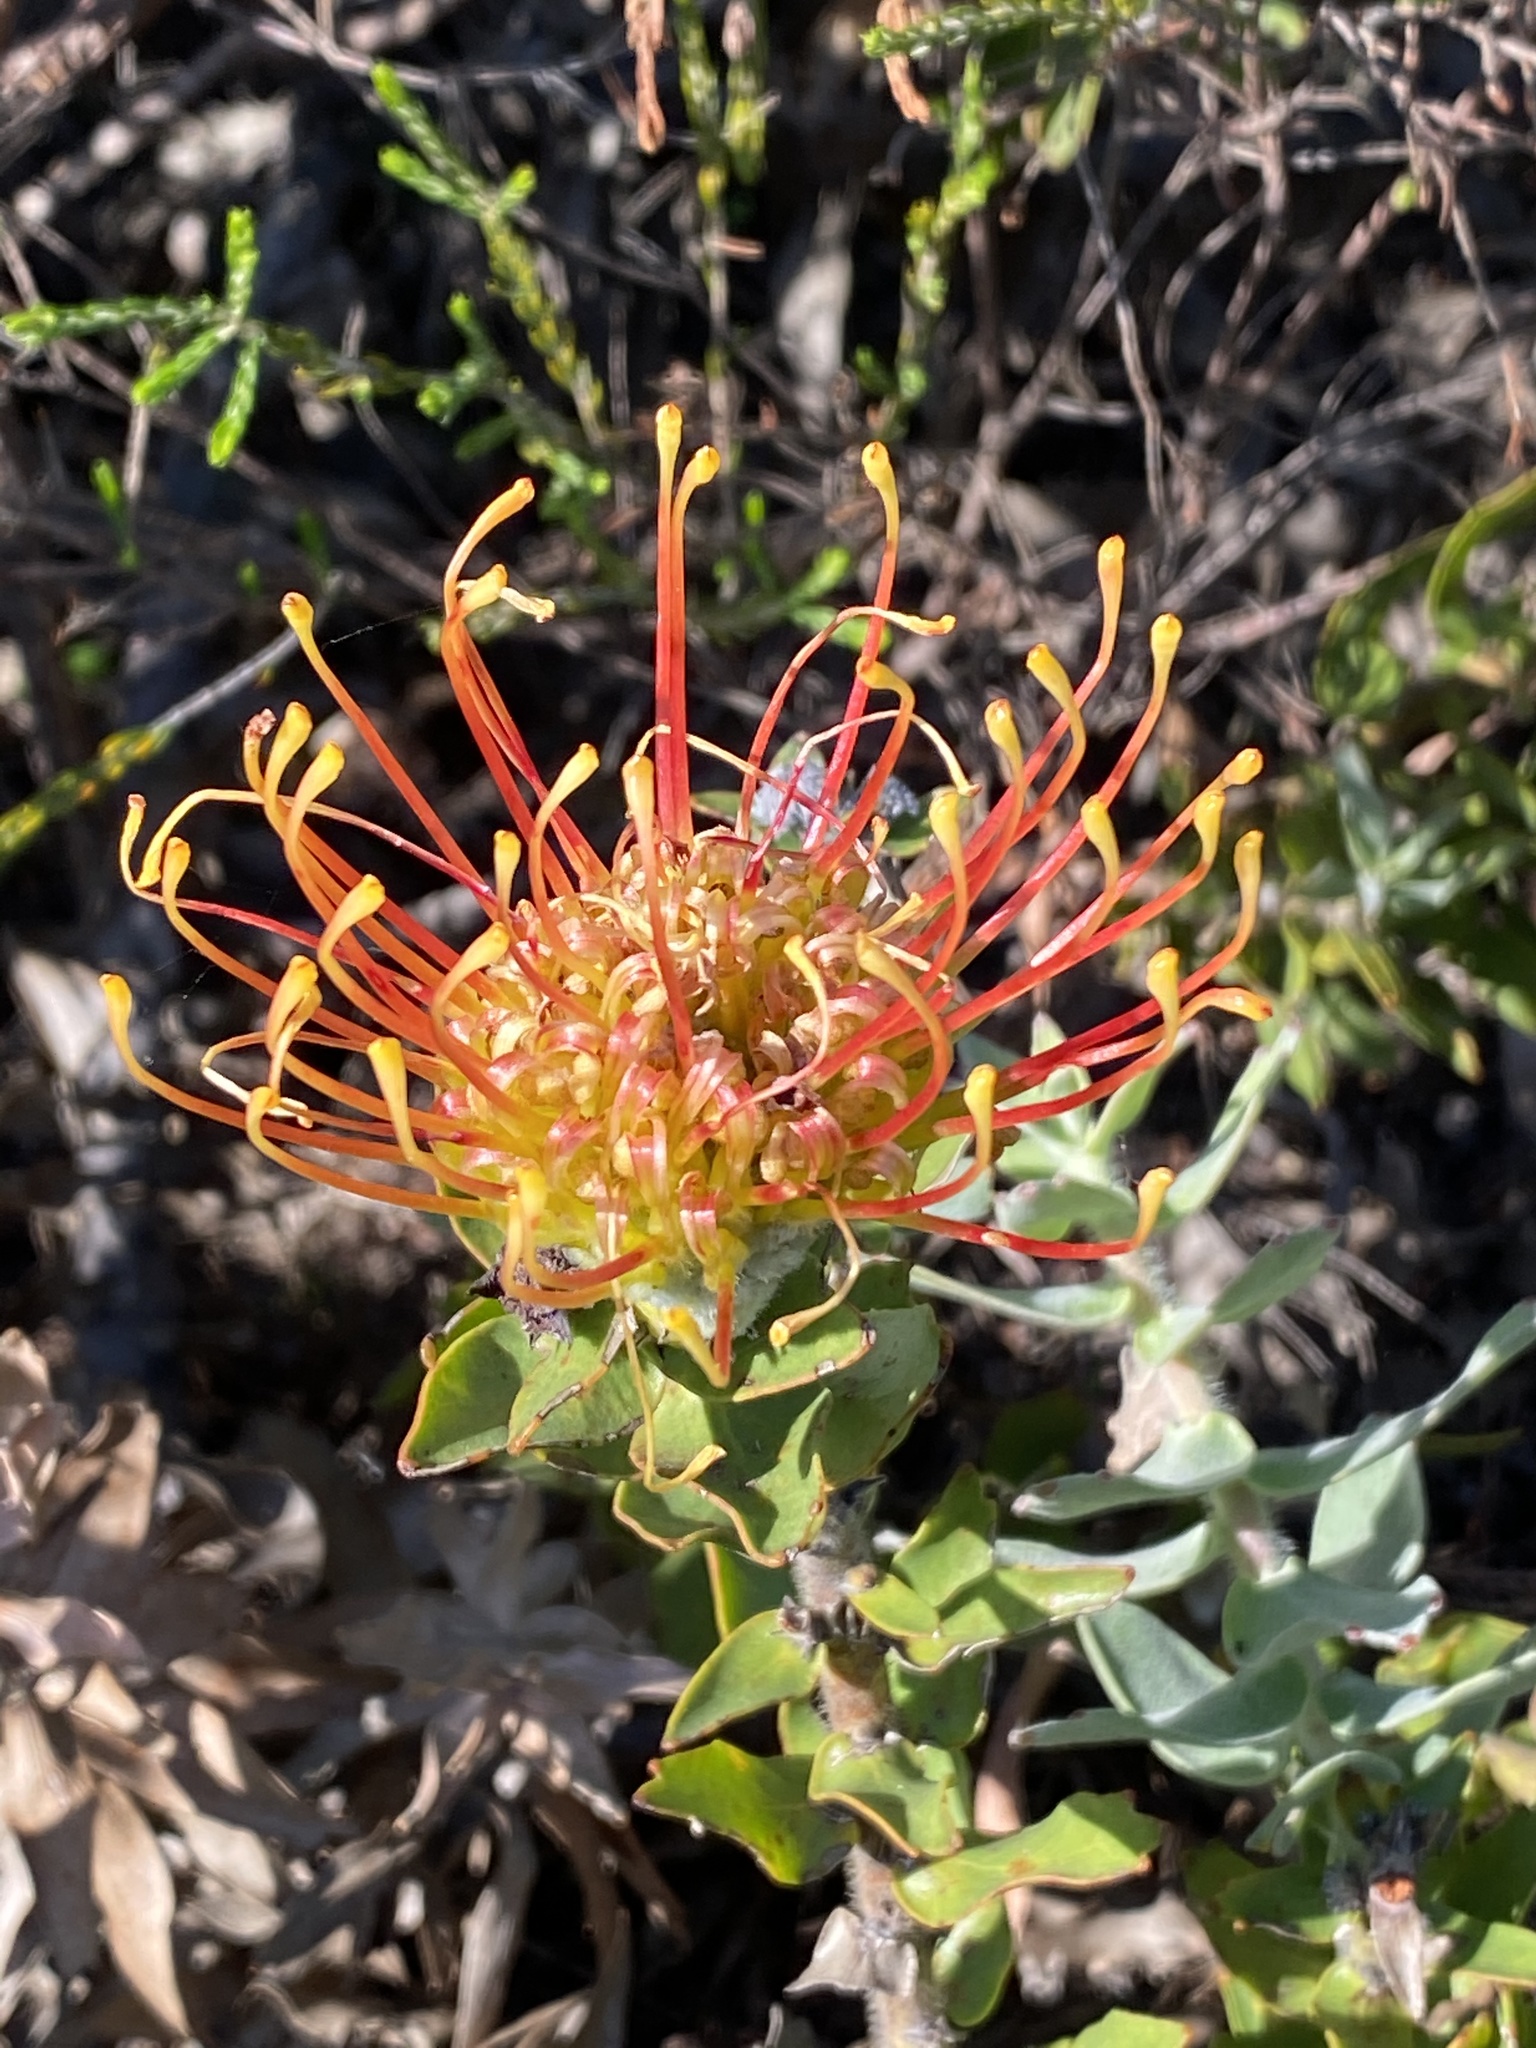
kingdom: Plantae
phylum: Tracheophyta
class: Magnoliopsida
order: Proteales
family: Proteaceae
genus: Leucospermum
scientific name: Leucospermum cordifolium
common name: Red pincushion-protea
